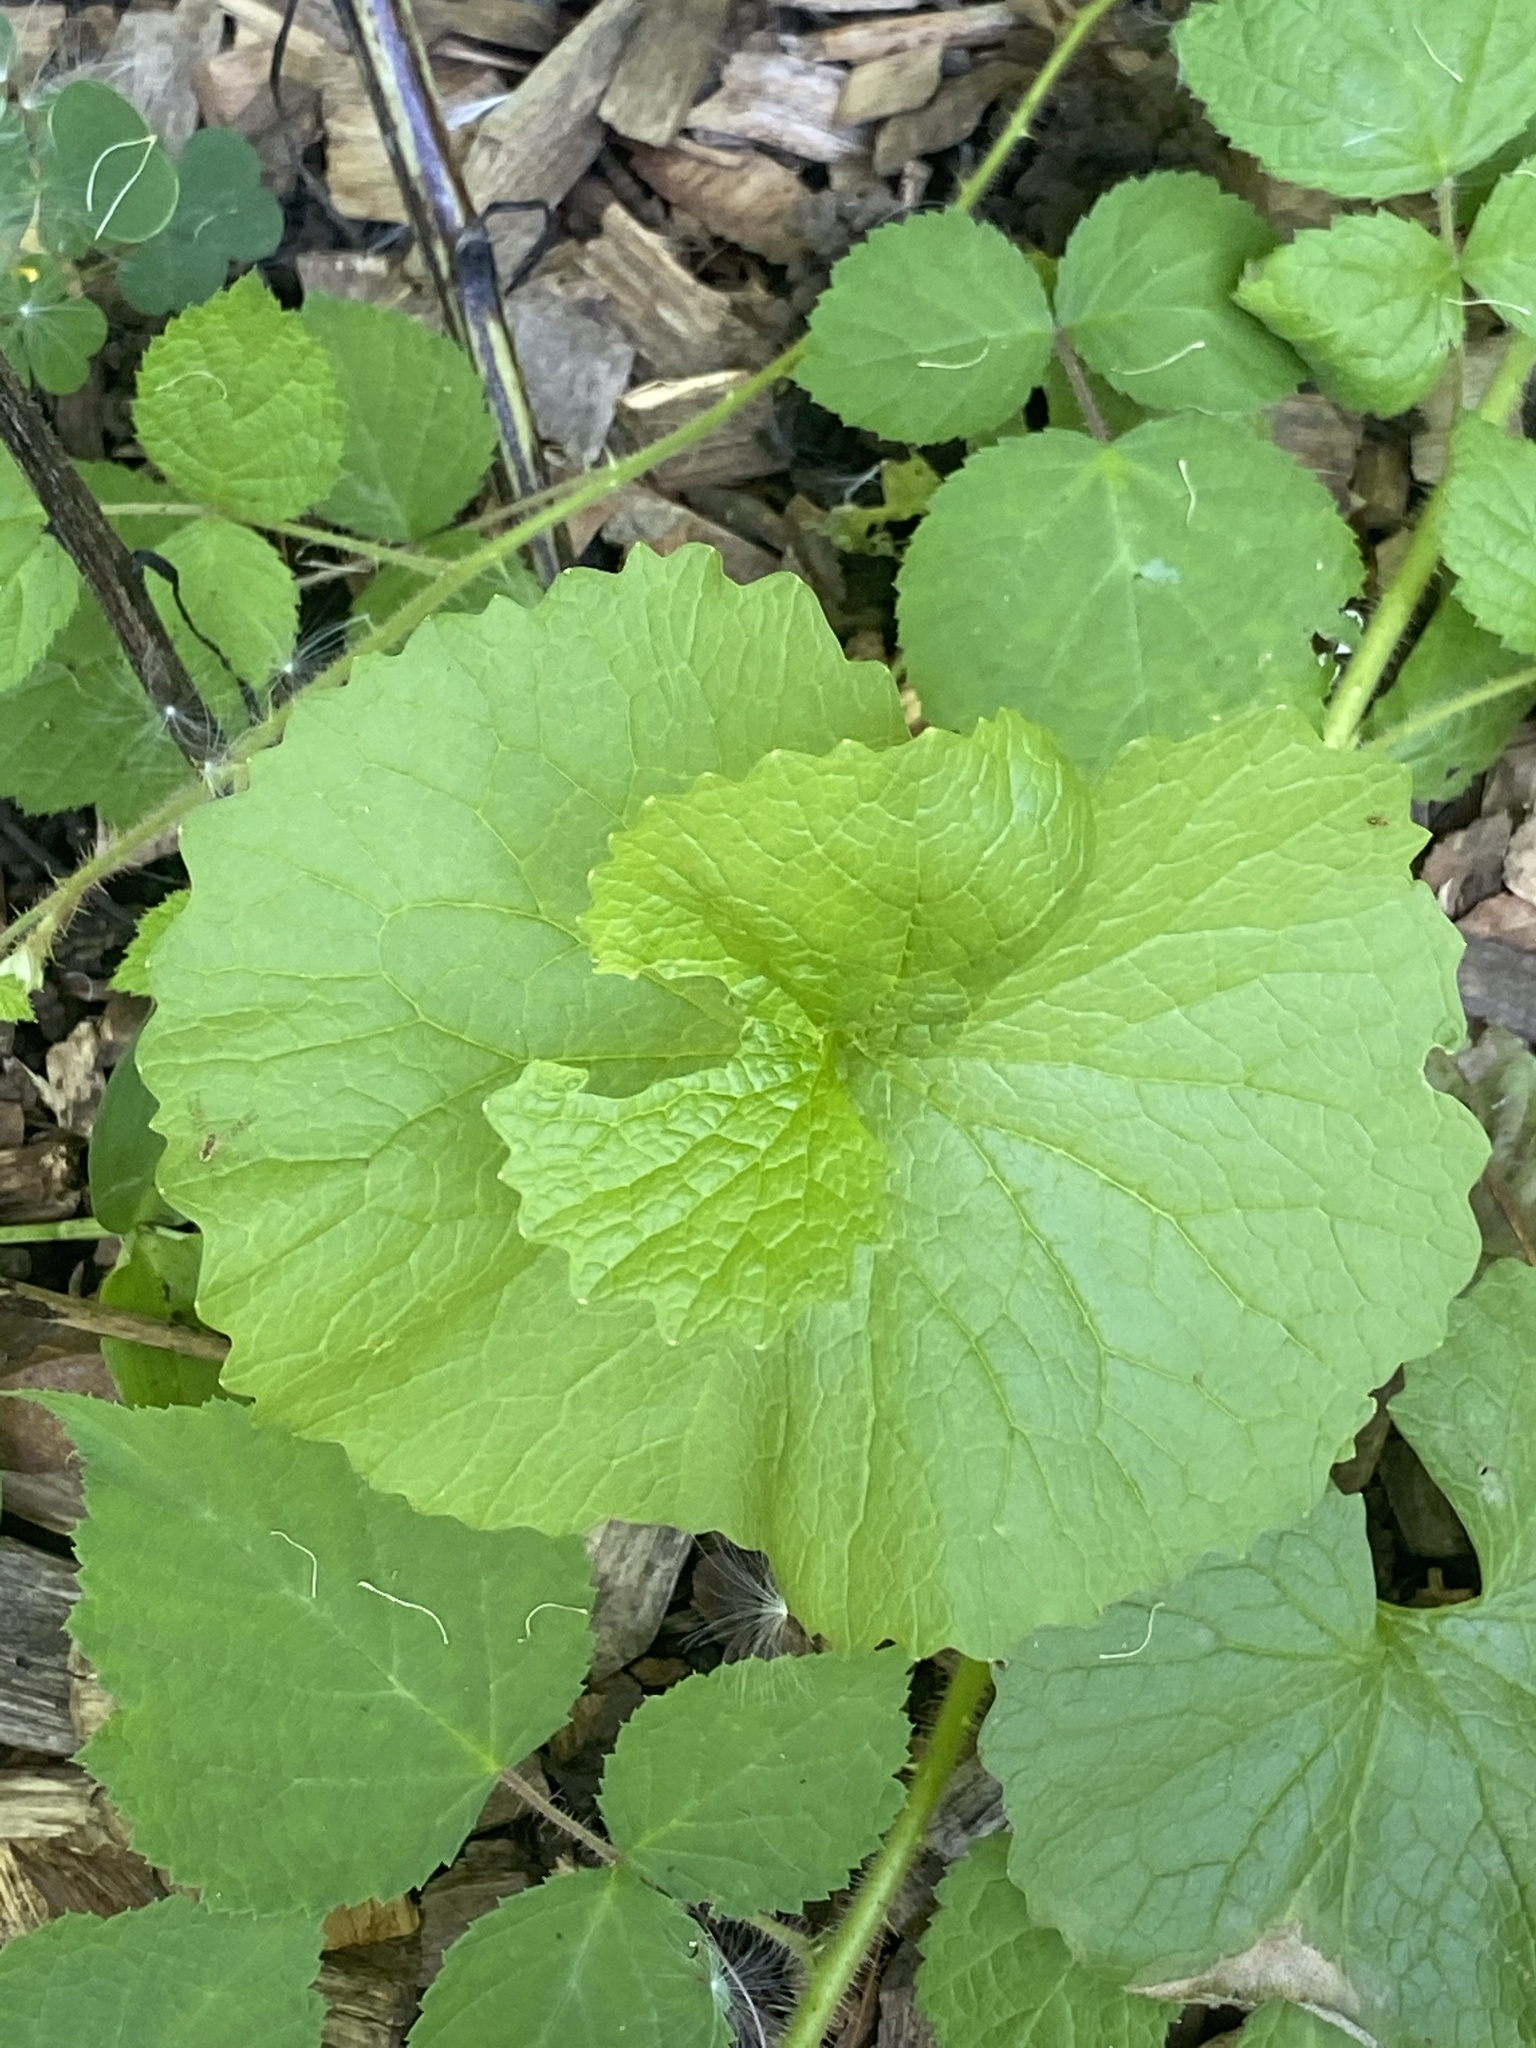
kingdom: Plantae
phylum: Tracheophyta
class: Magnoliopsida
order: Brassicales
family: Brassicaceae
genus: Alliaria
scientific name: Alliaria petiolata
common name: Garlic mustard
